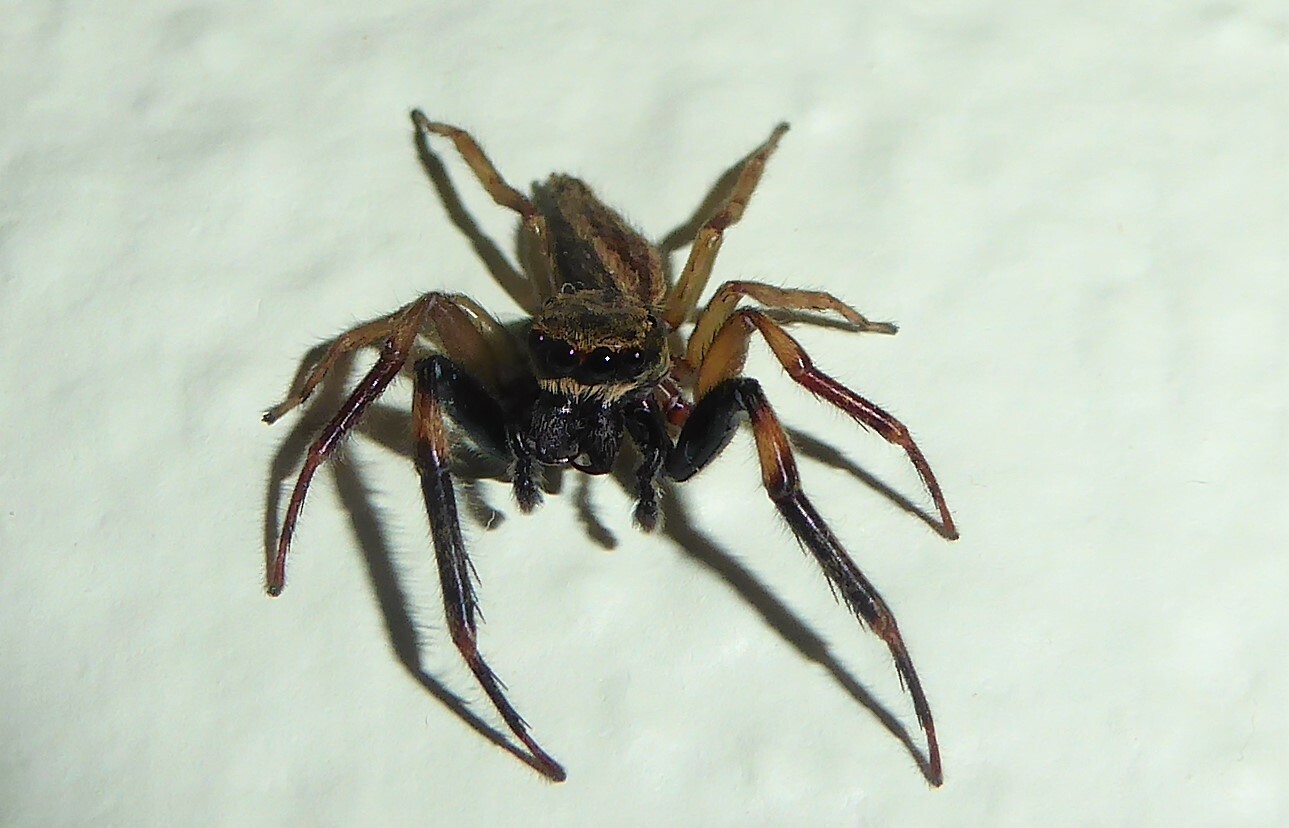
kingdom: Animalia
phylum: Arthropoda
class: Arachnida
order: Araneae
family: Salticidae
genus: Trite
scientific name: Trite auricoma
